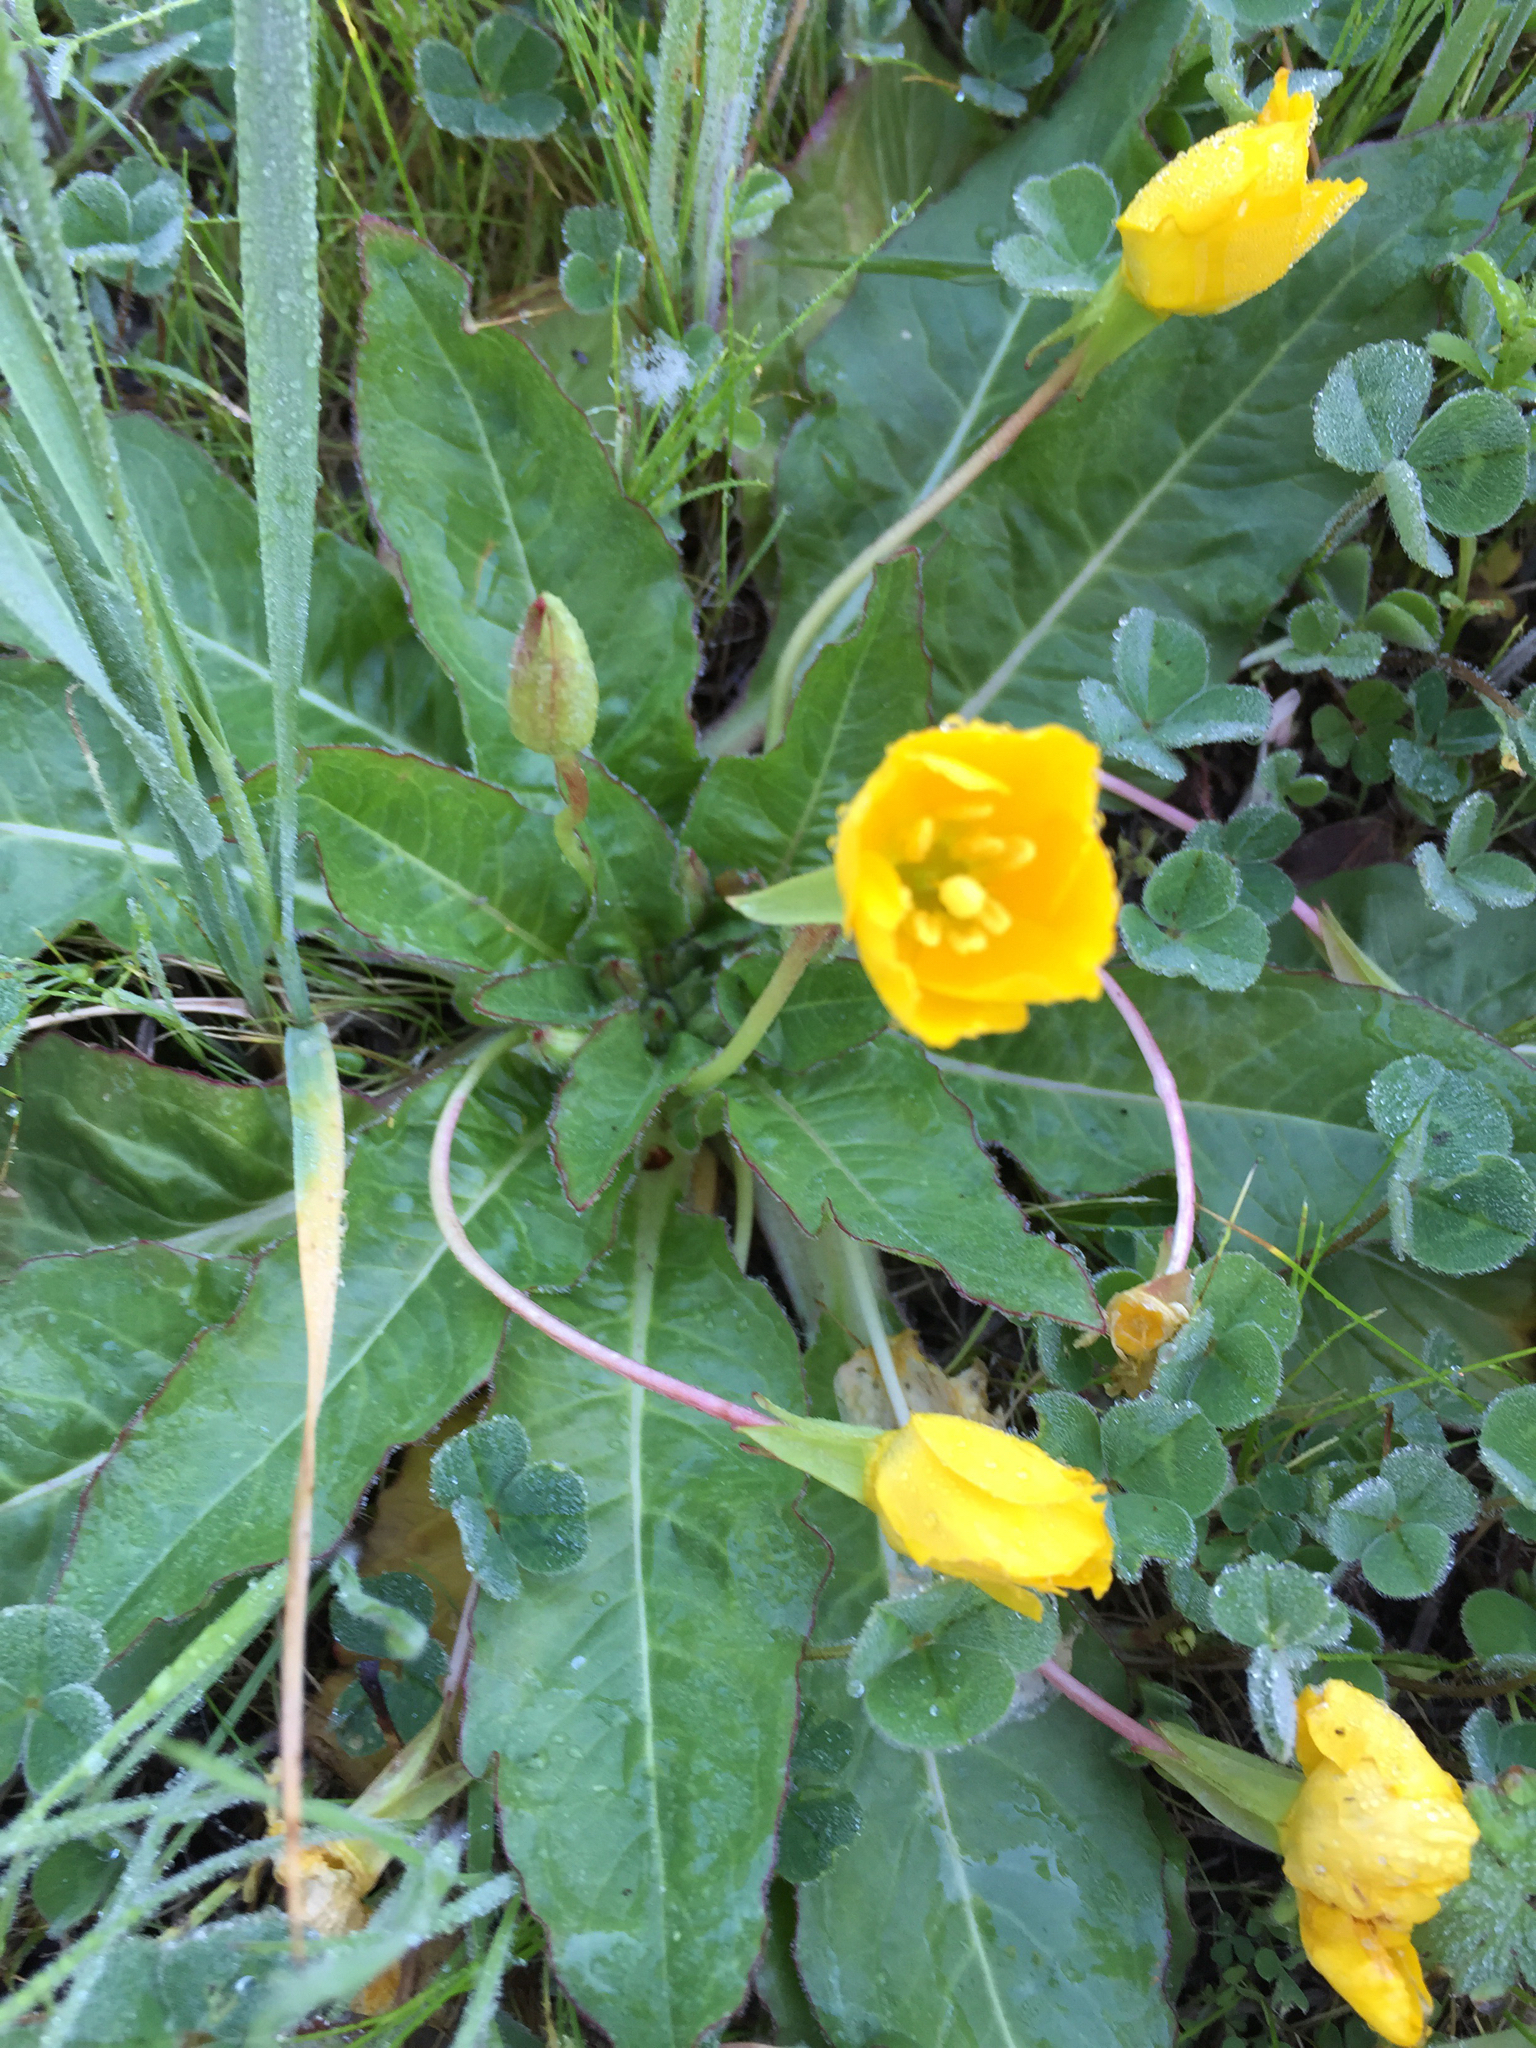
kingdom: Plantae
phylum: Tracheophyta
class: Magnoliopsida
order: Myrtales
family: Onagraceae
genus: Taraxia
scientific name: Taraxia ovata
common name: Goldeneggs
